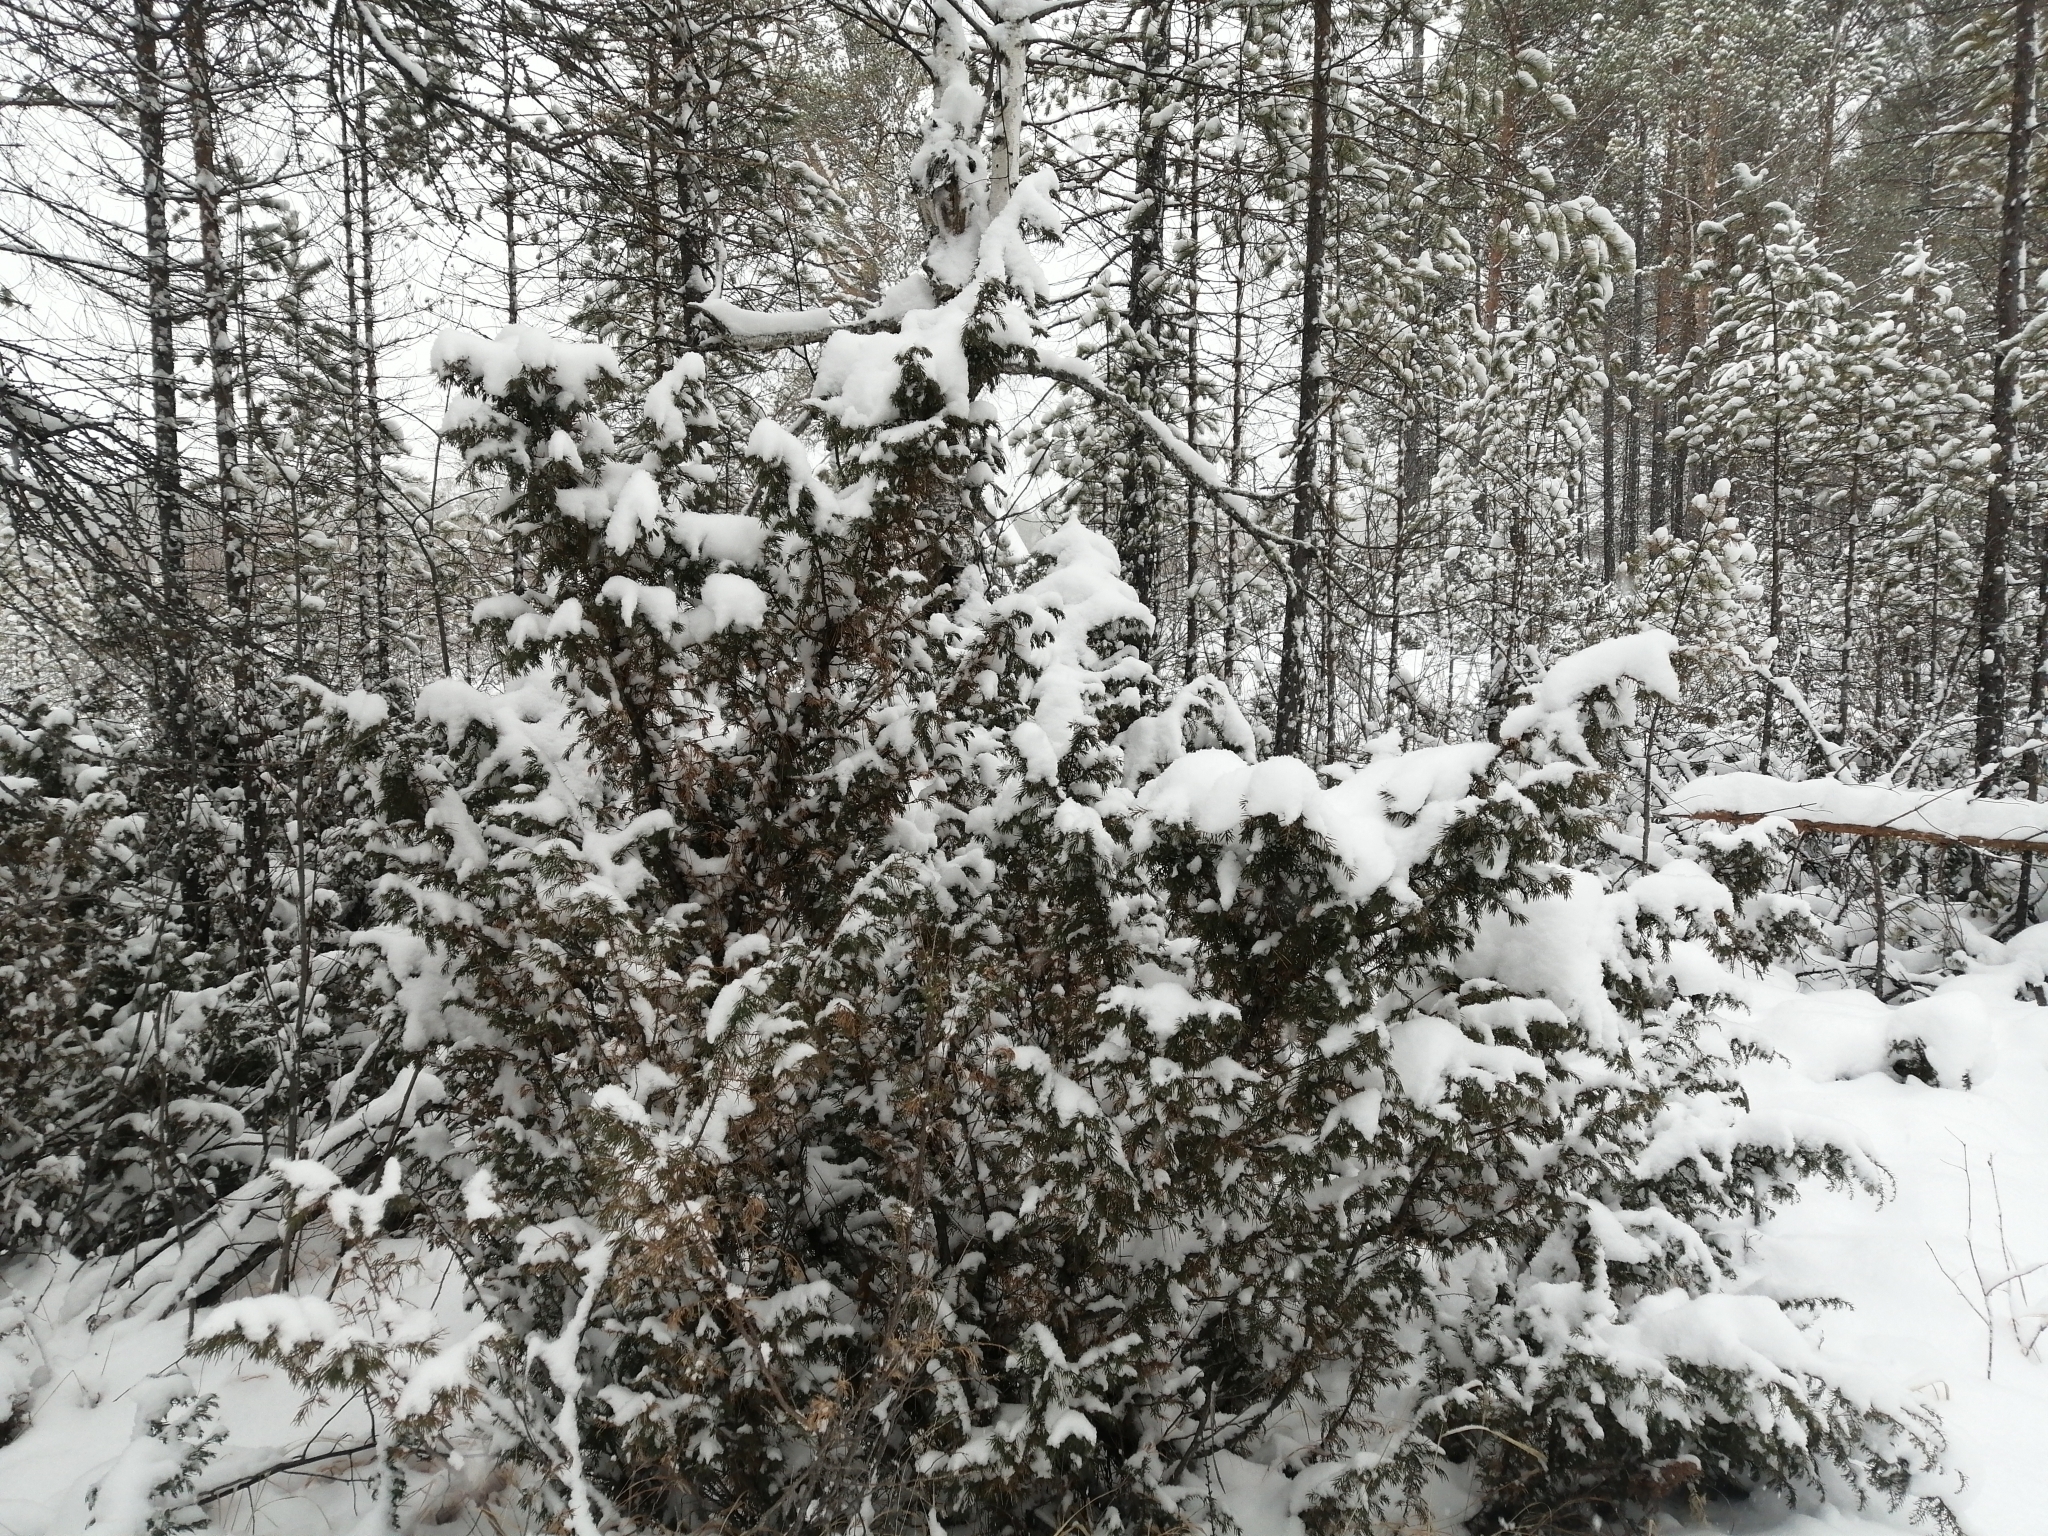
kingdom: Plantae
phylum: Tracheophyta
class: Pinopsida
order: Pinales
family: Cupressaceae
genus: Juniperus
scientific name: Juniperus communis
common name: Common juniper
